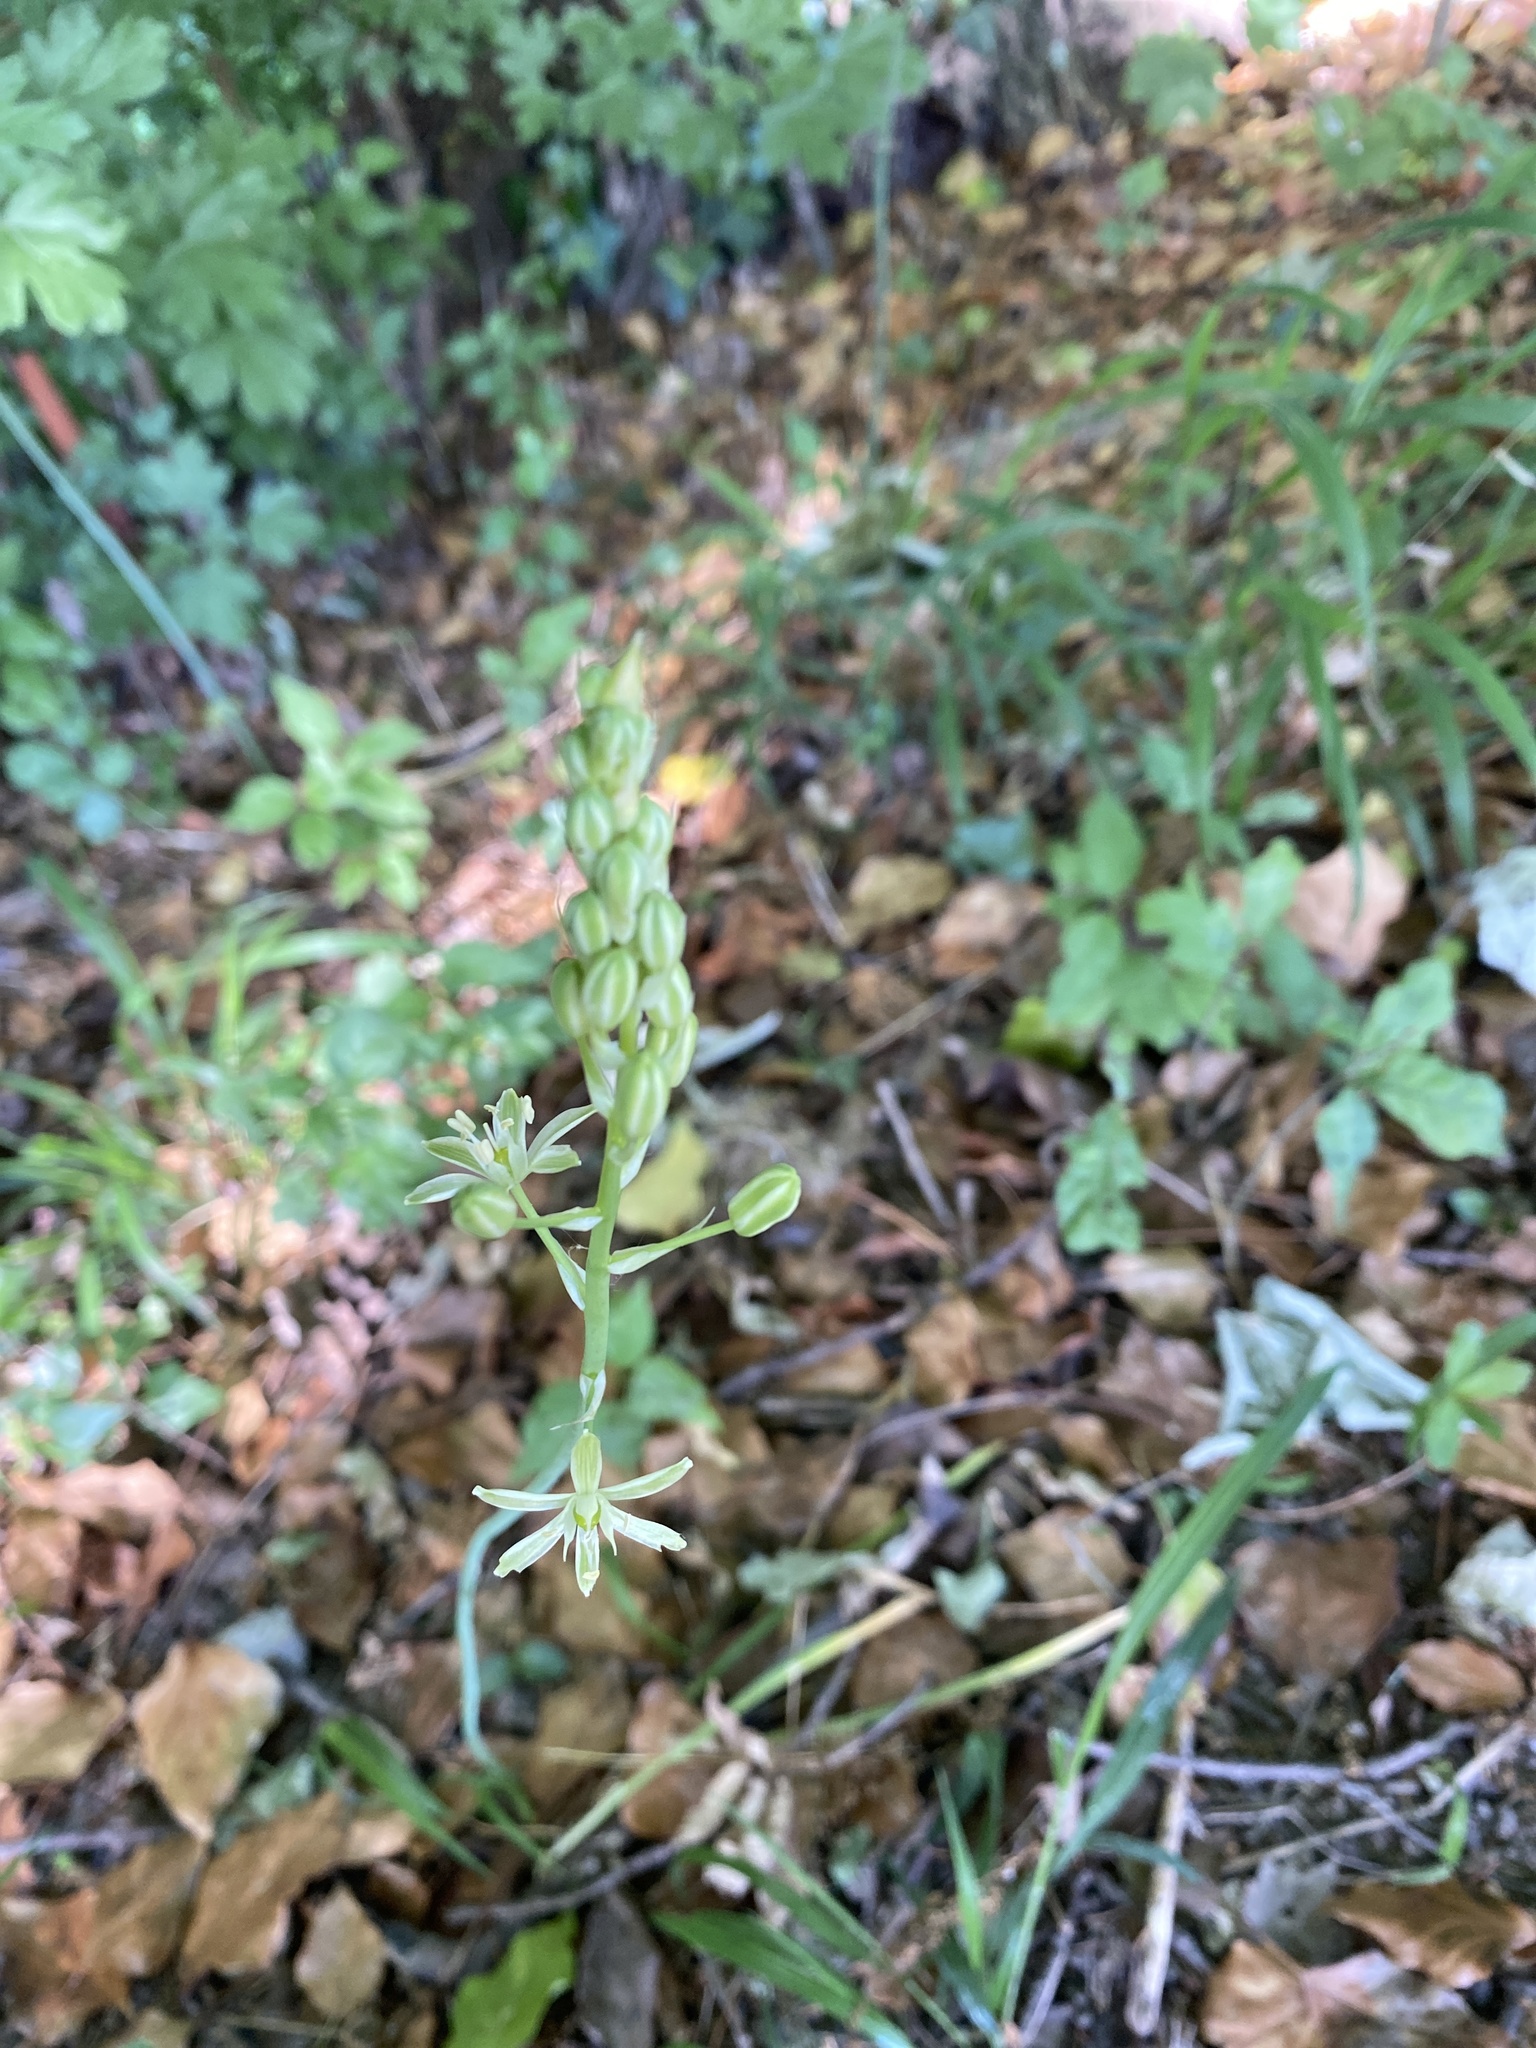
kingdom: Plantae
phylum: Tracheophyta
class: Liliopsida
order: Asparagales
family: Asparagaceae
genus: Ornithogalum
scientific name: Ornithogalum pyrenaicum
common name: Spiked star-of-bethlehem
